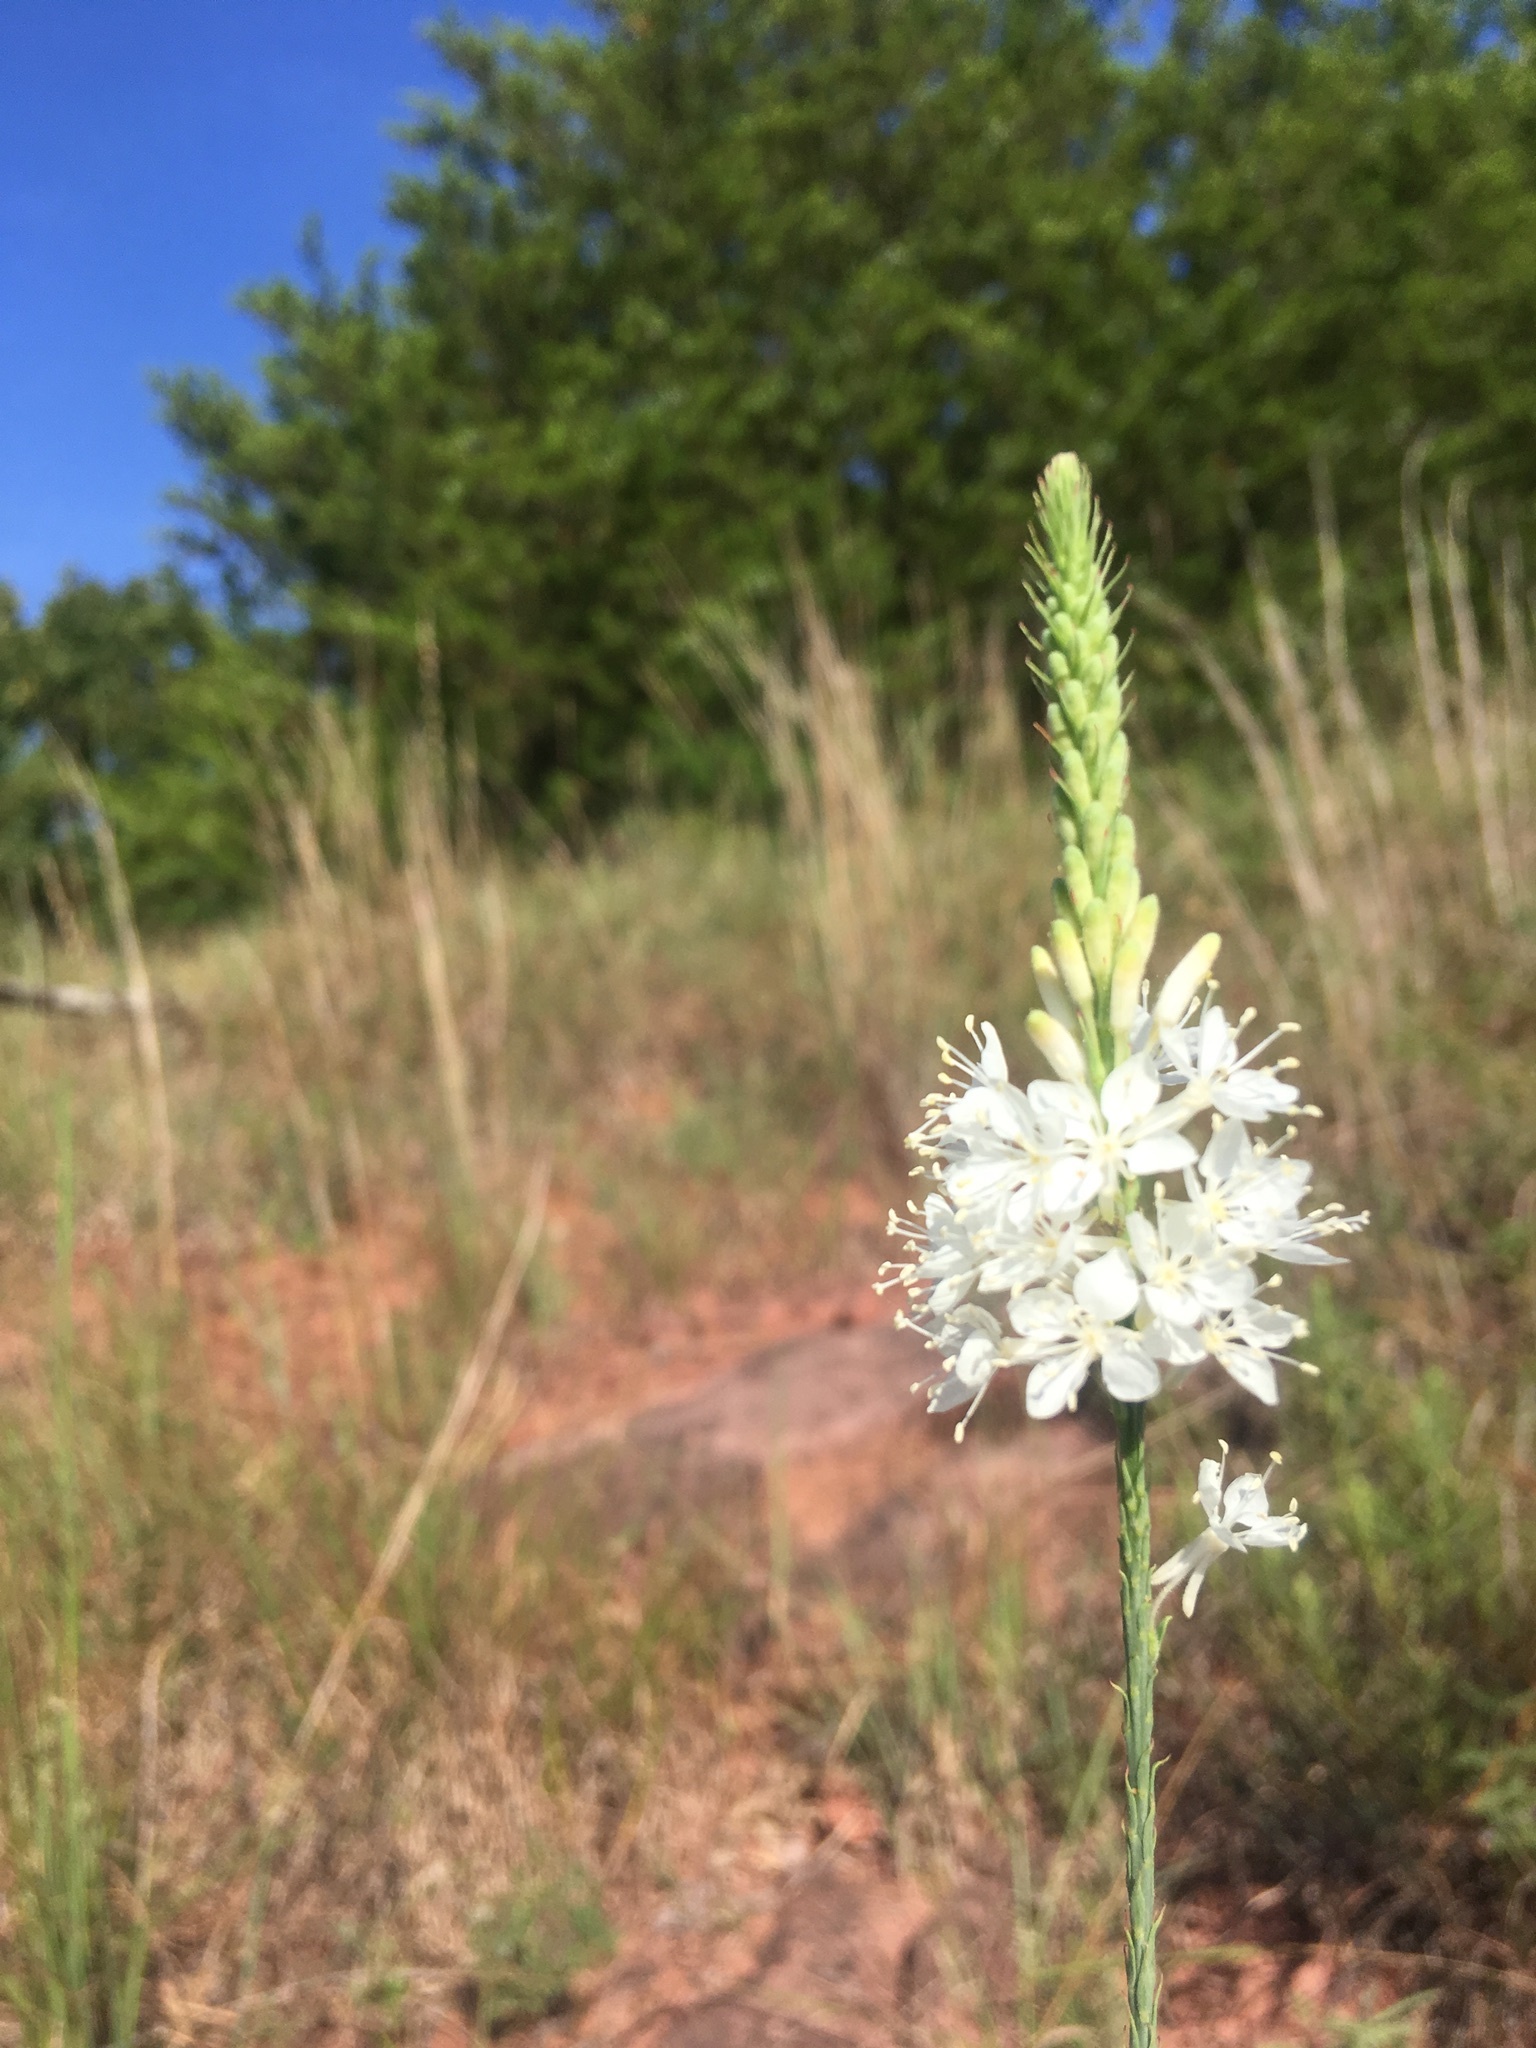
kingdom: Plantae
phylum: Tracheophyta
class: Magnoliopsida
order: Myrtales
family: Onagraceae
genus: Oenothera
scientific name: Oenothera glaucifolia
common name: False gaura
